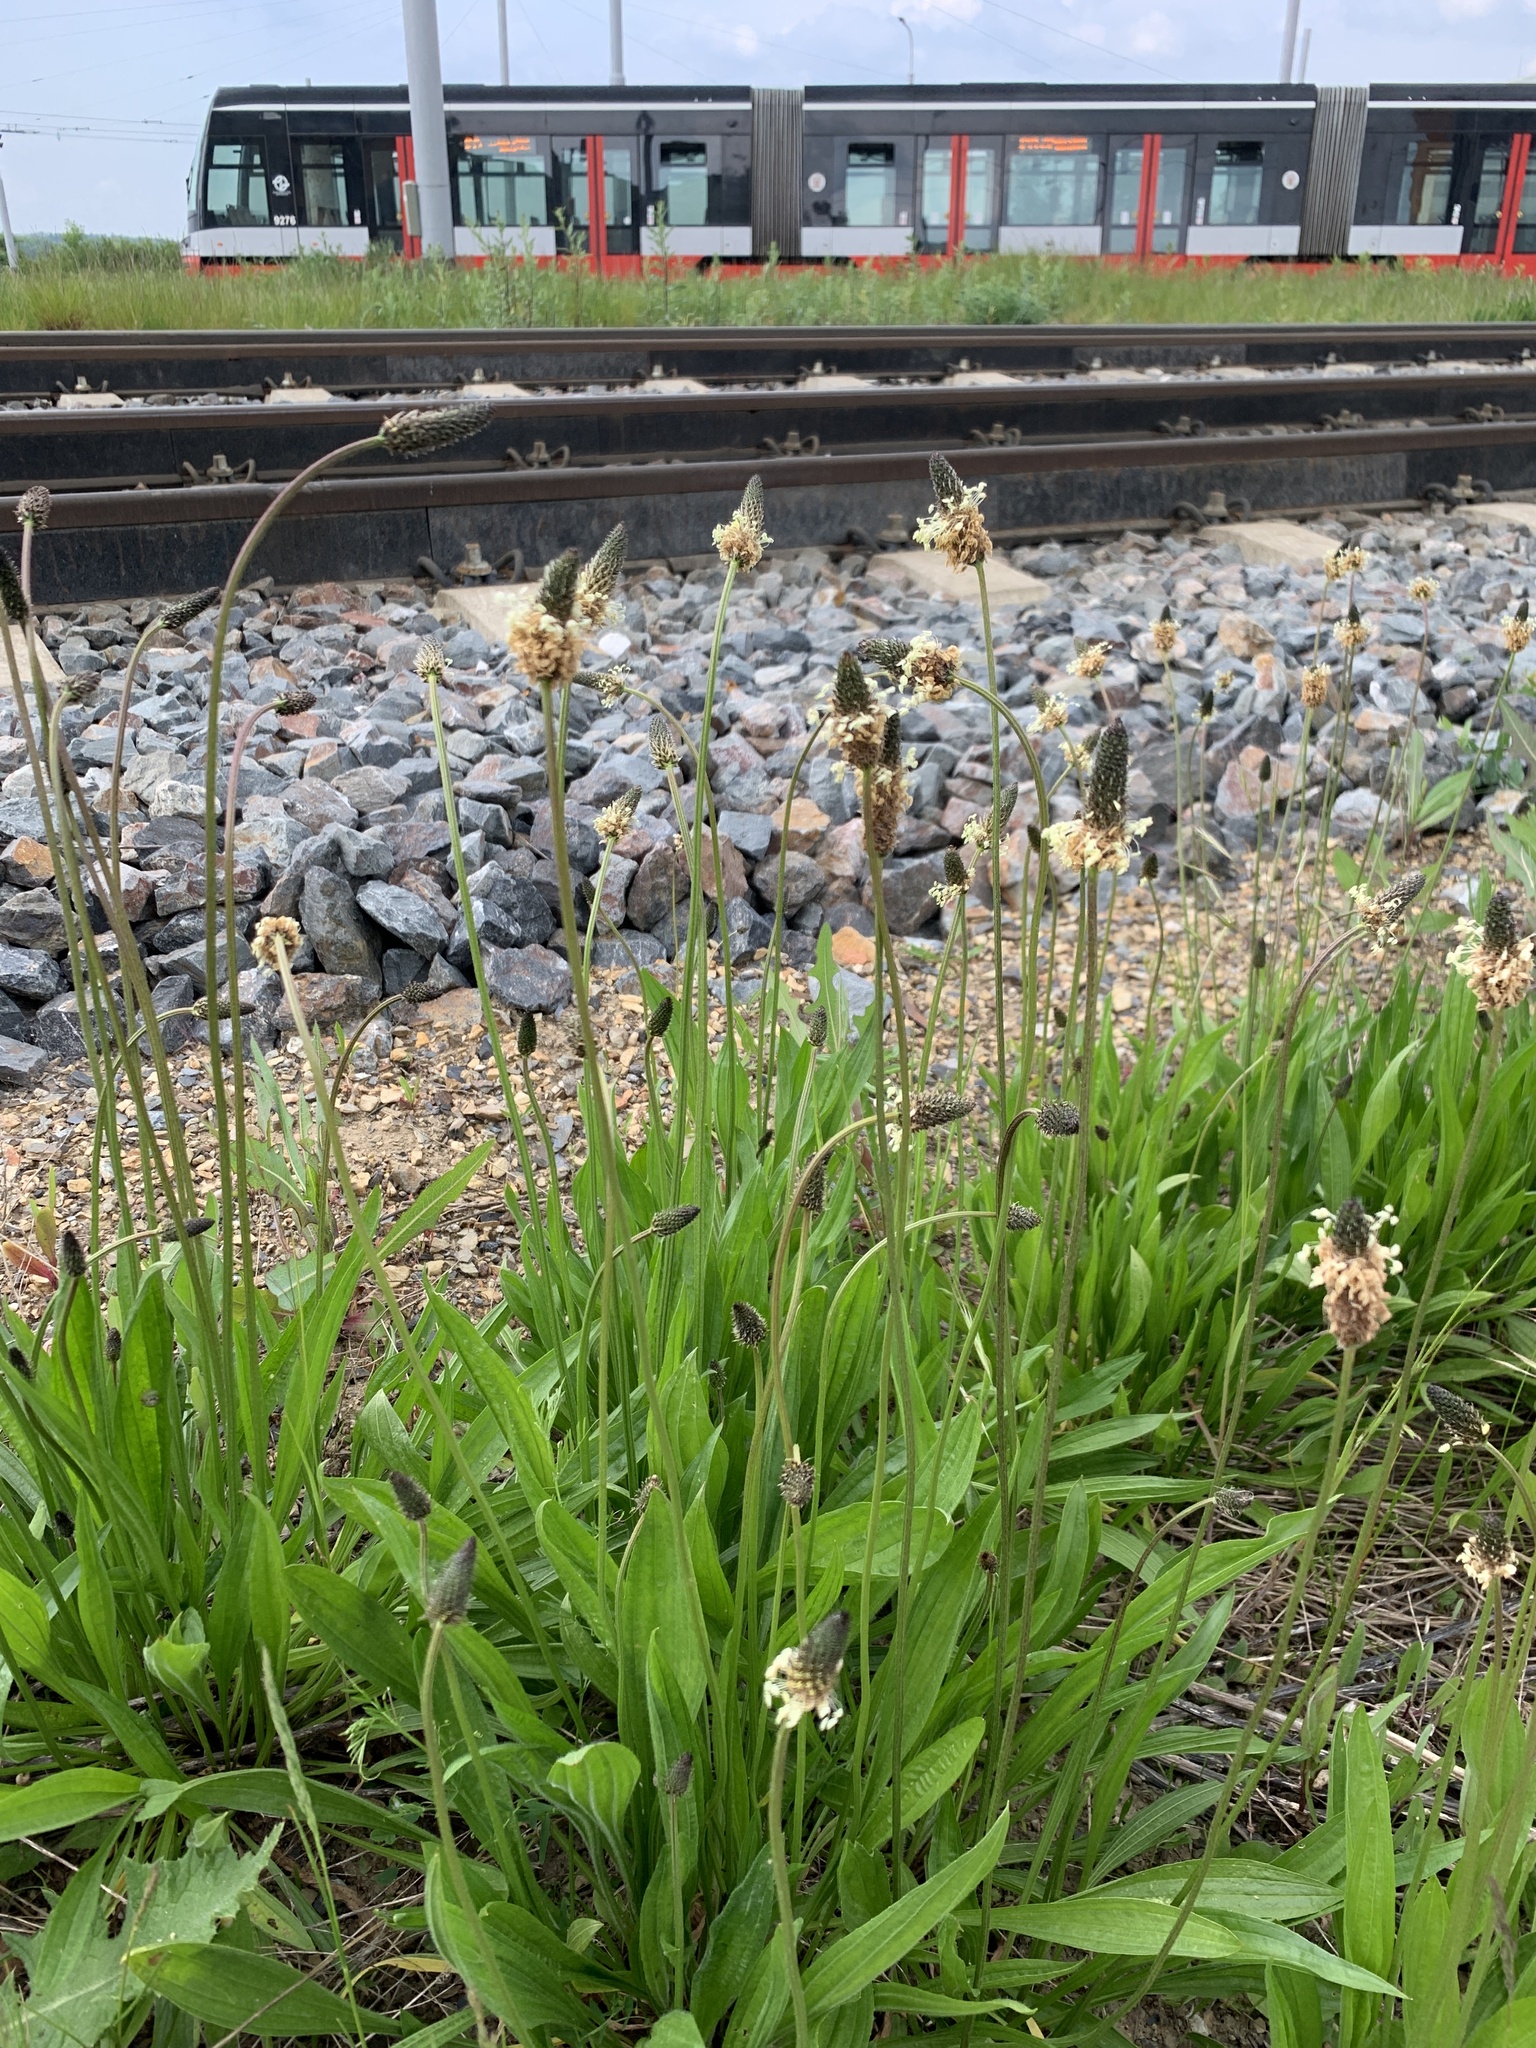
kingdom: Plantae
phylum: Tracheophyta
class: Magnoliopsida
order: Lamiales
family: Plantaginaceae
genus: Plantago
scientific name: Plantago lanceolata
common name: Ribwort plantain
